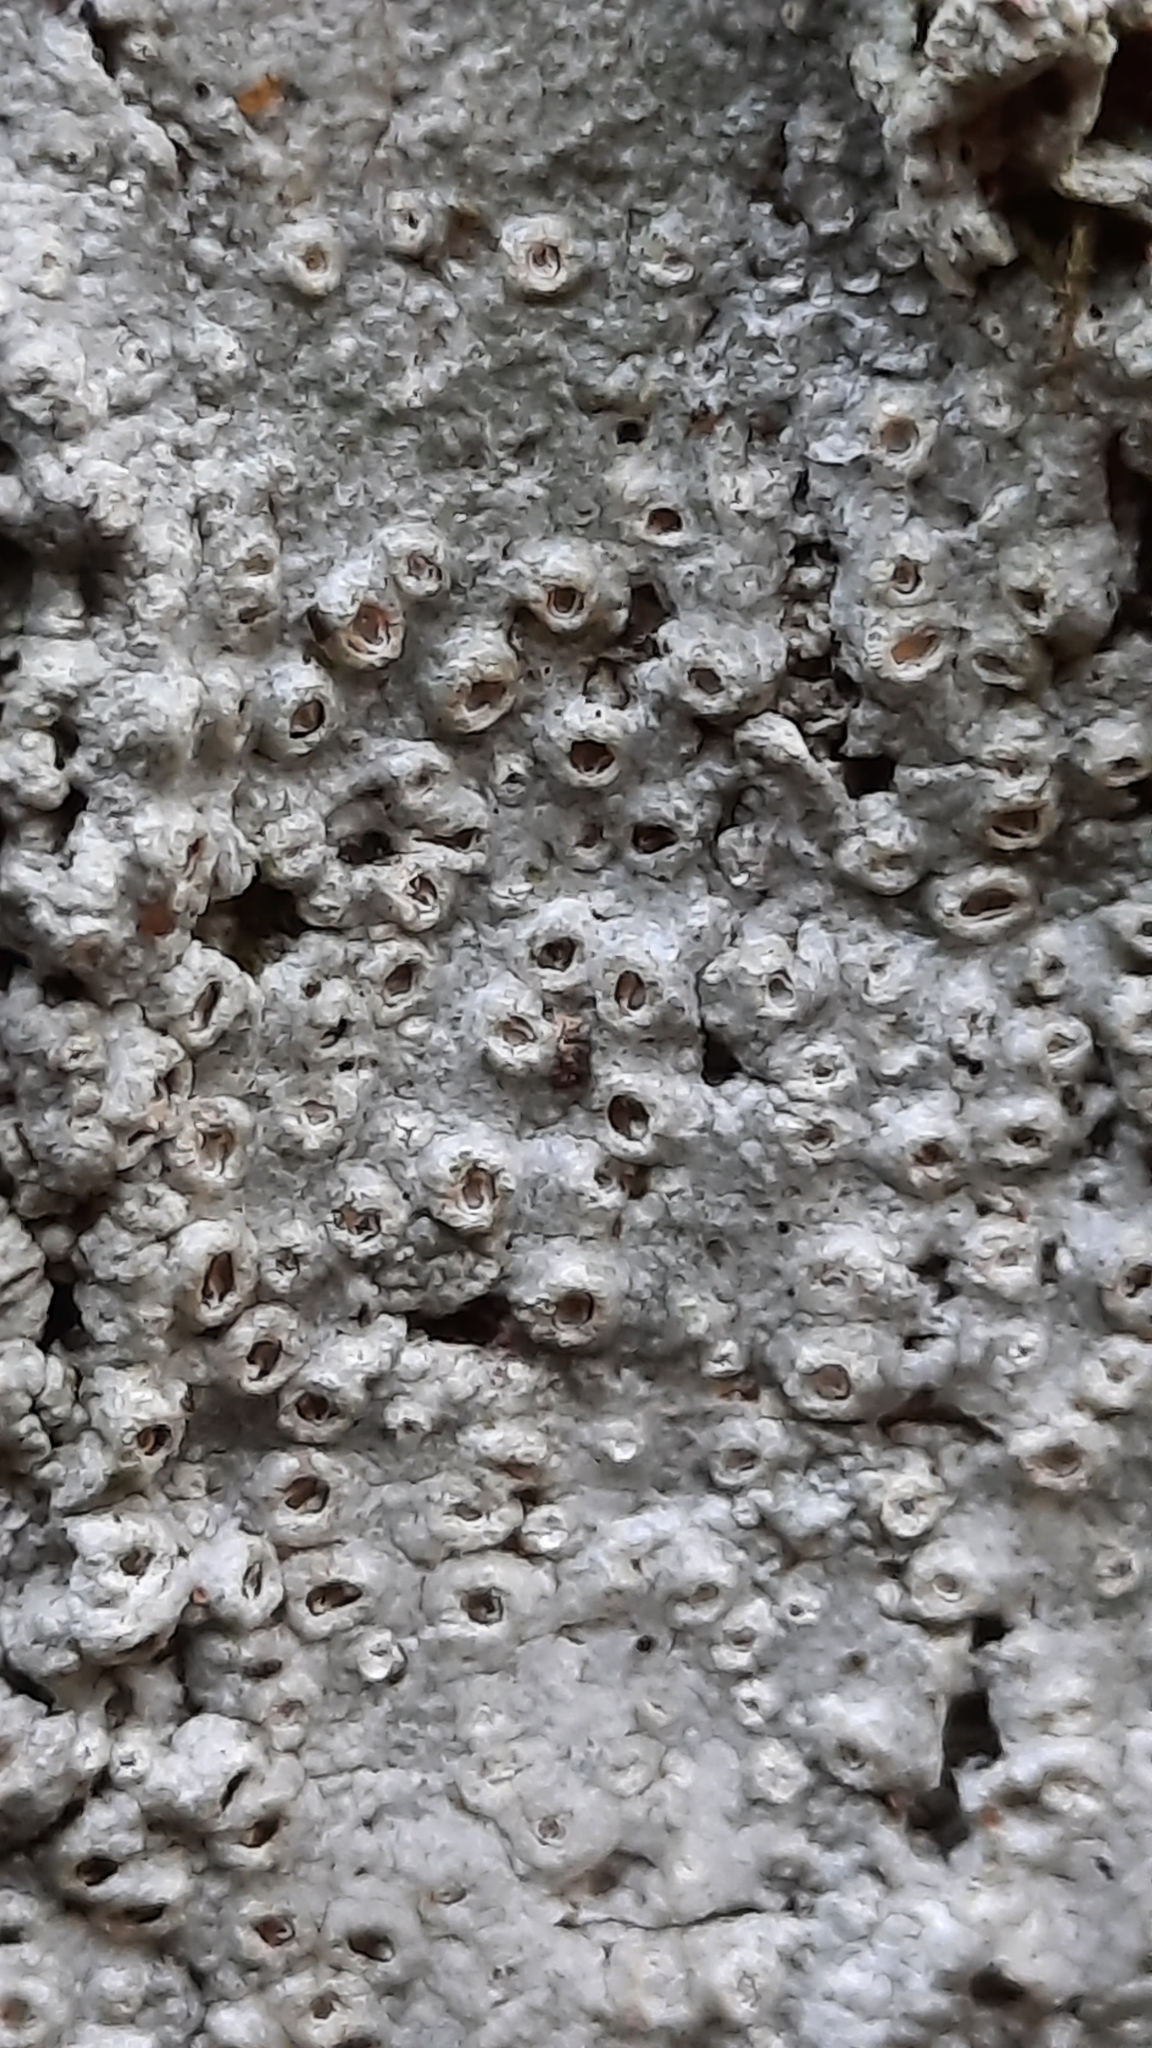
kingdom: Fungi
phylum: Ascomycota
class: Lecanoromycetes
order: Ostropales
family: Graphidaceae
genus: Thelotrema
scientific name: Thelotrema lepadinum
